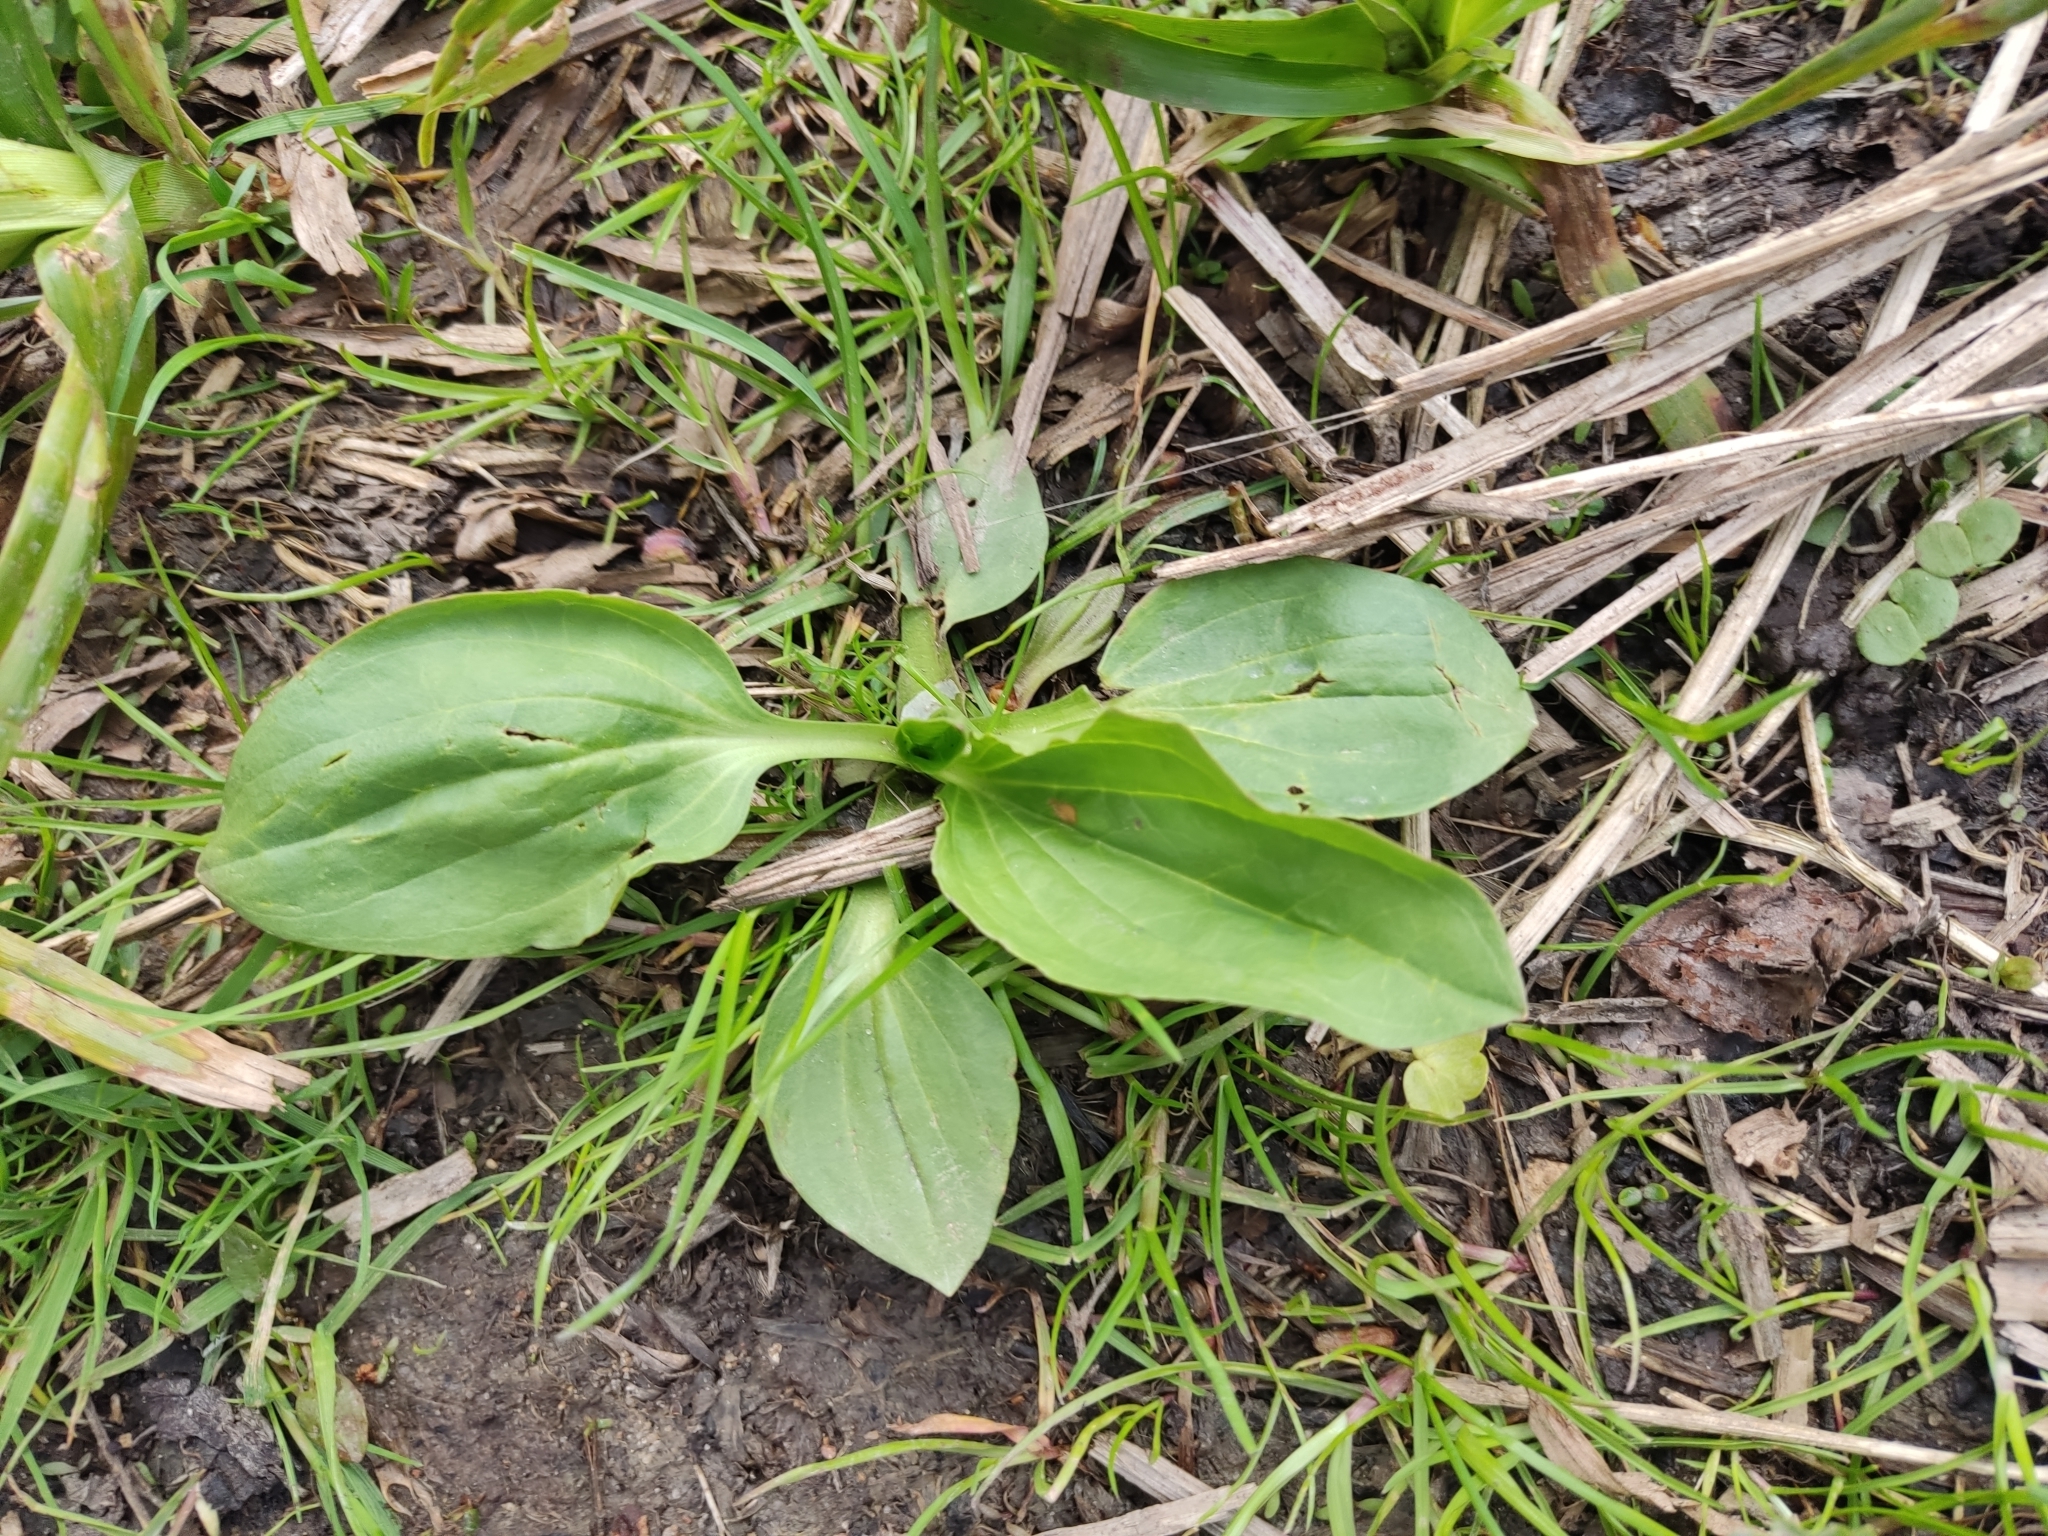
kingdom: Plantae
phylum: Tracheophyta
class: Magnoliopsida
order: Lamiales
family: Plantaginaceae
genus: Plantago
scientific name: Plantago major
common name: Common plantain
